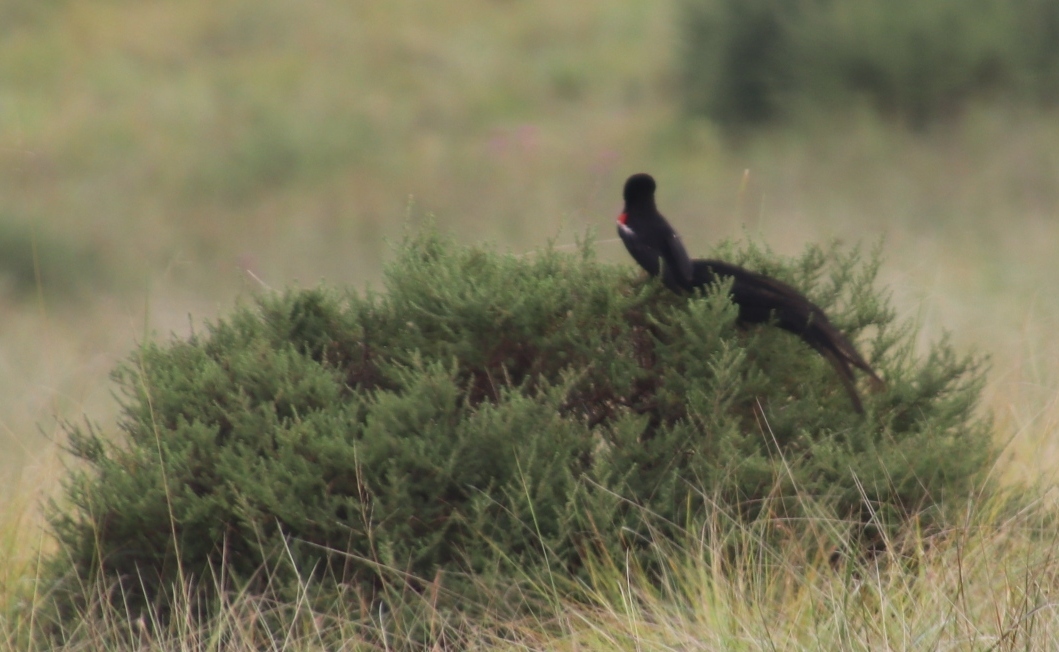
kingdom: Animalia
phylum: Chordata
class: Aves
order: Passeriformes
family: Ploceidae
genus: Euplectes
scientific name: Euplectes progne
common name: Long-tailed widowbird
